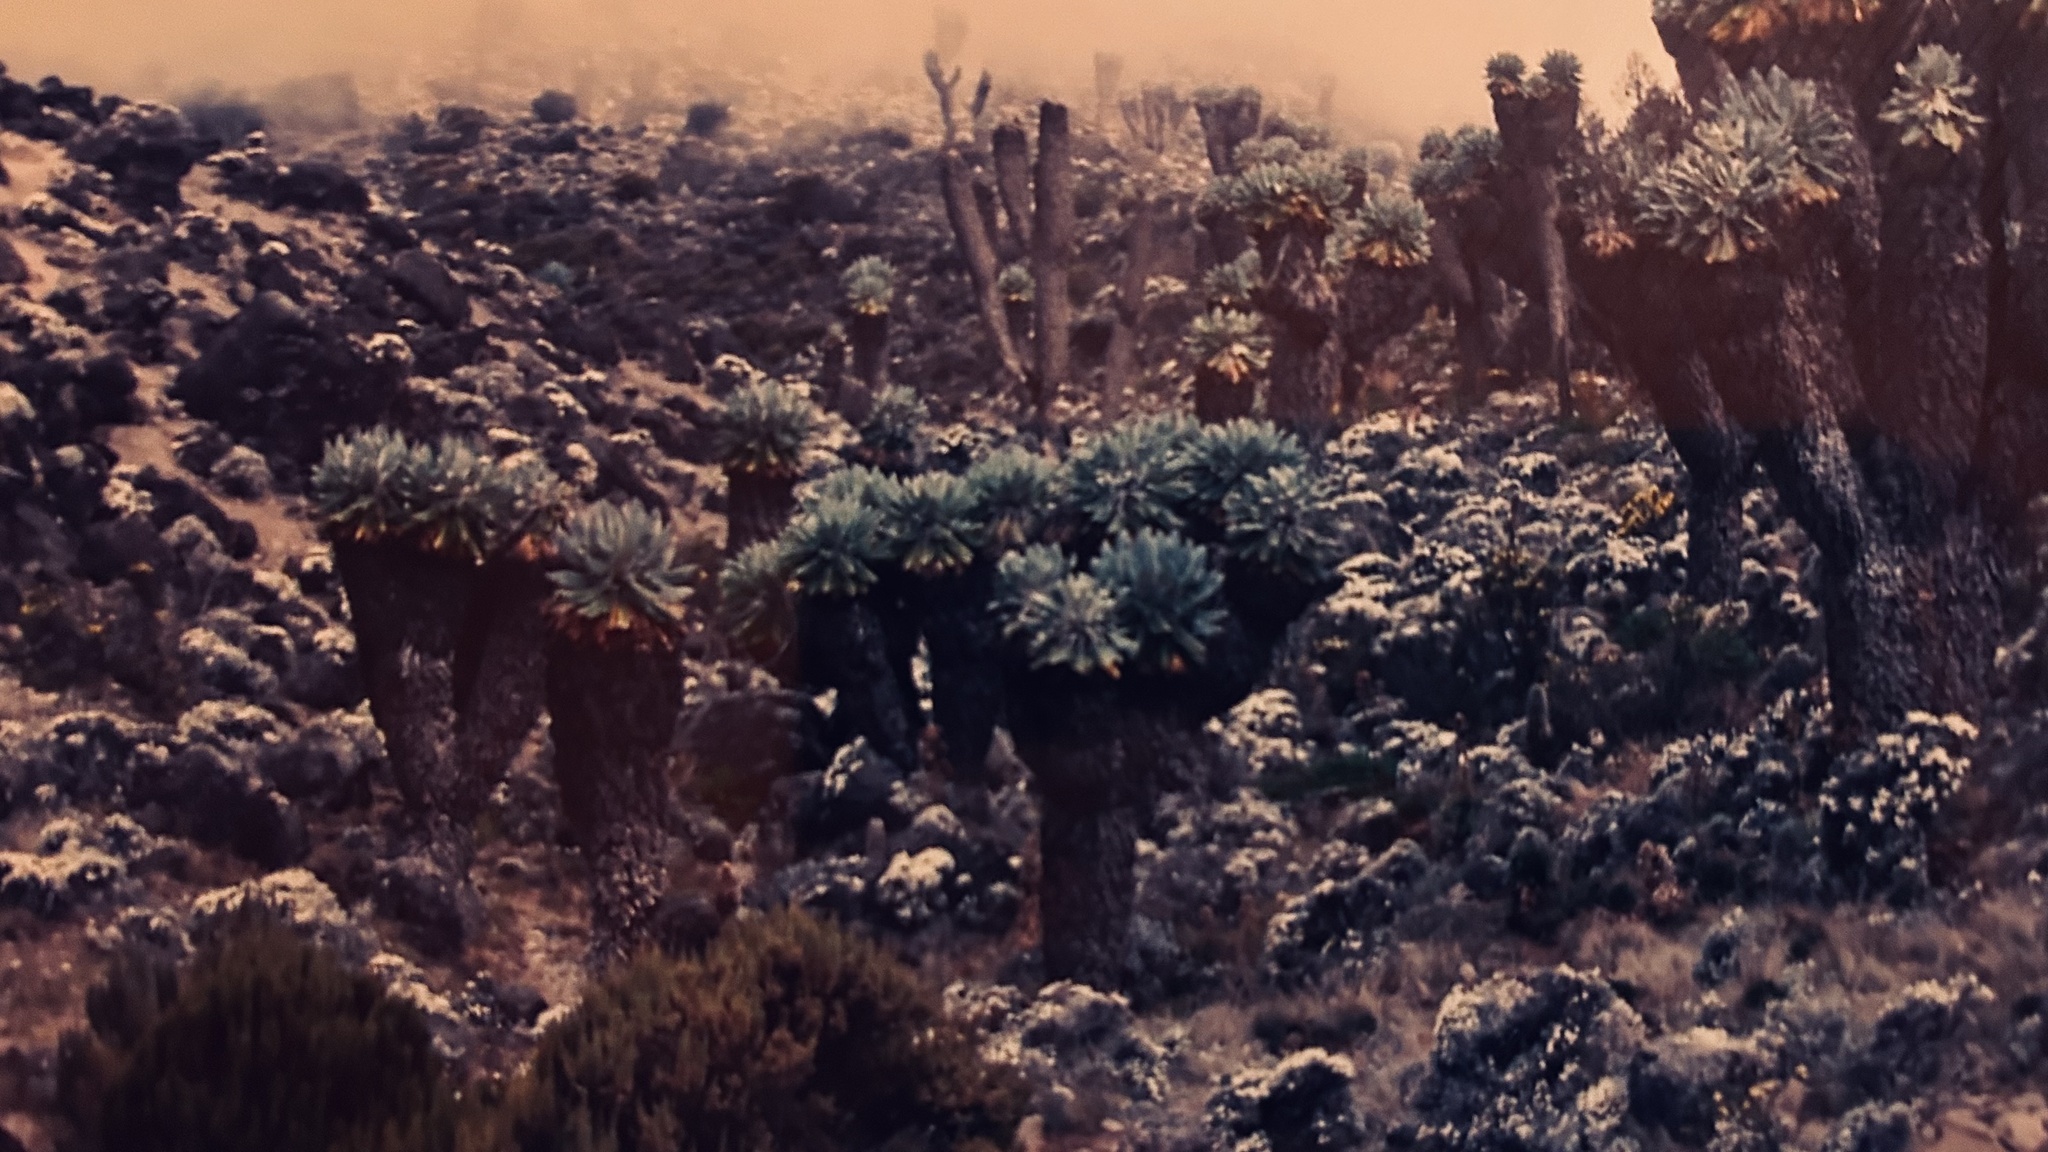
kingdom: Plantae
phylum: Tracheophyta
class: Magnoliopsida
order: Asterales
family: Asteraceae
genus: Dendrosenecio
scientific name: Dendrosenecio kilimanjari
